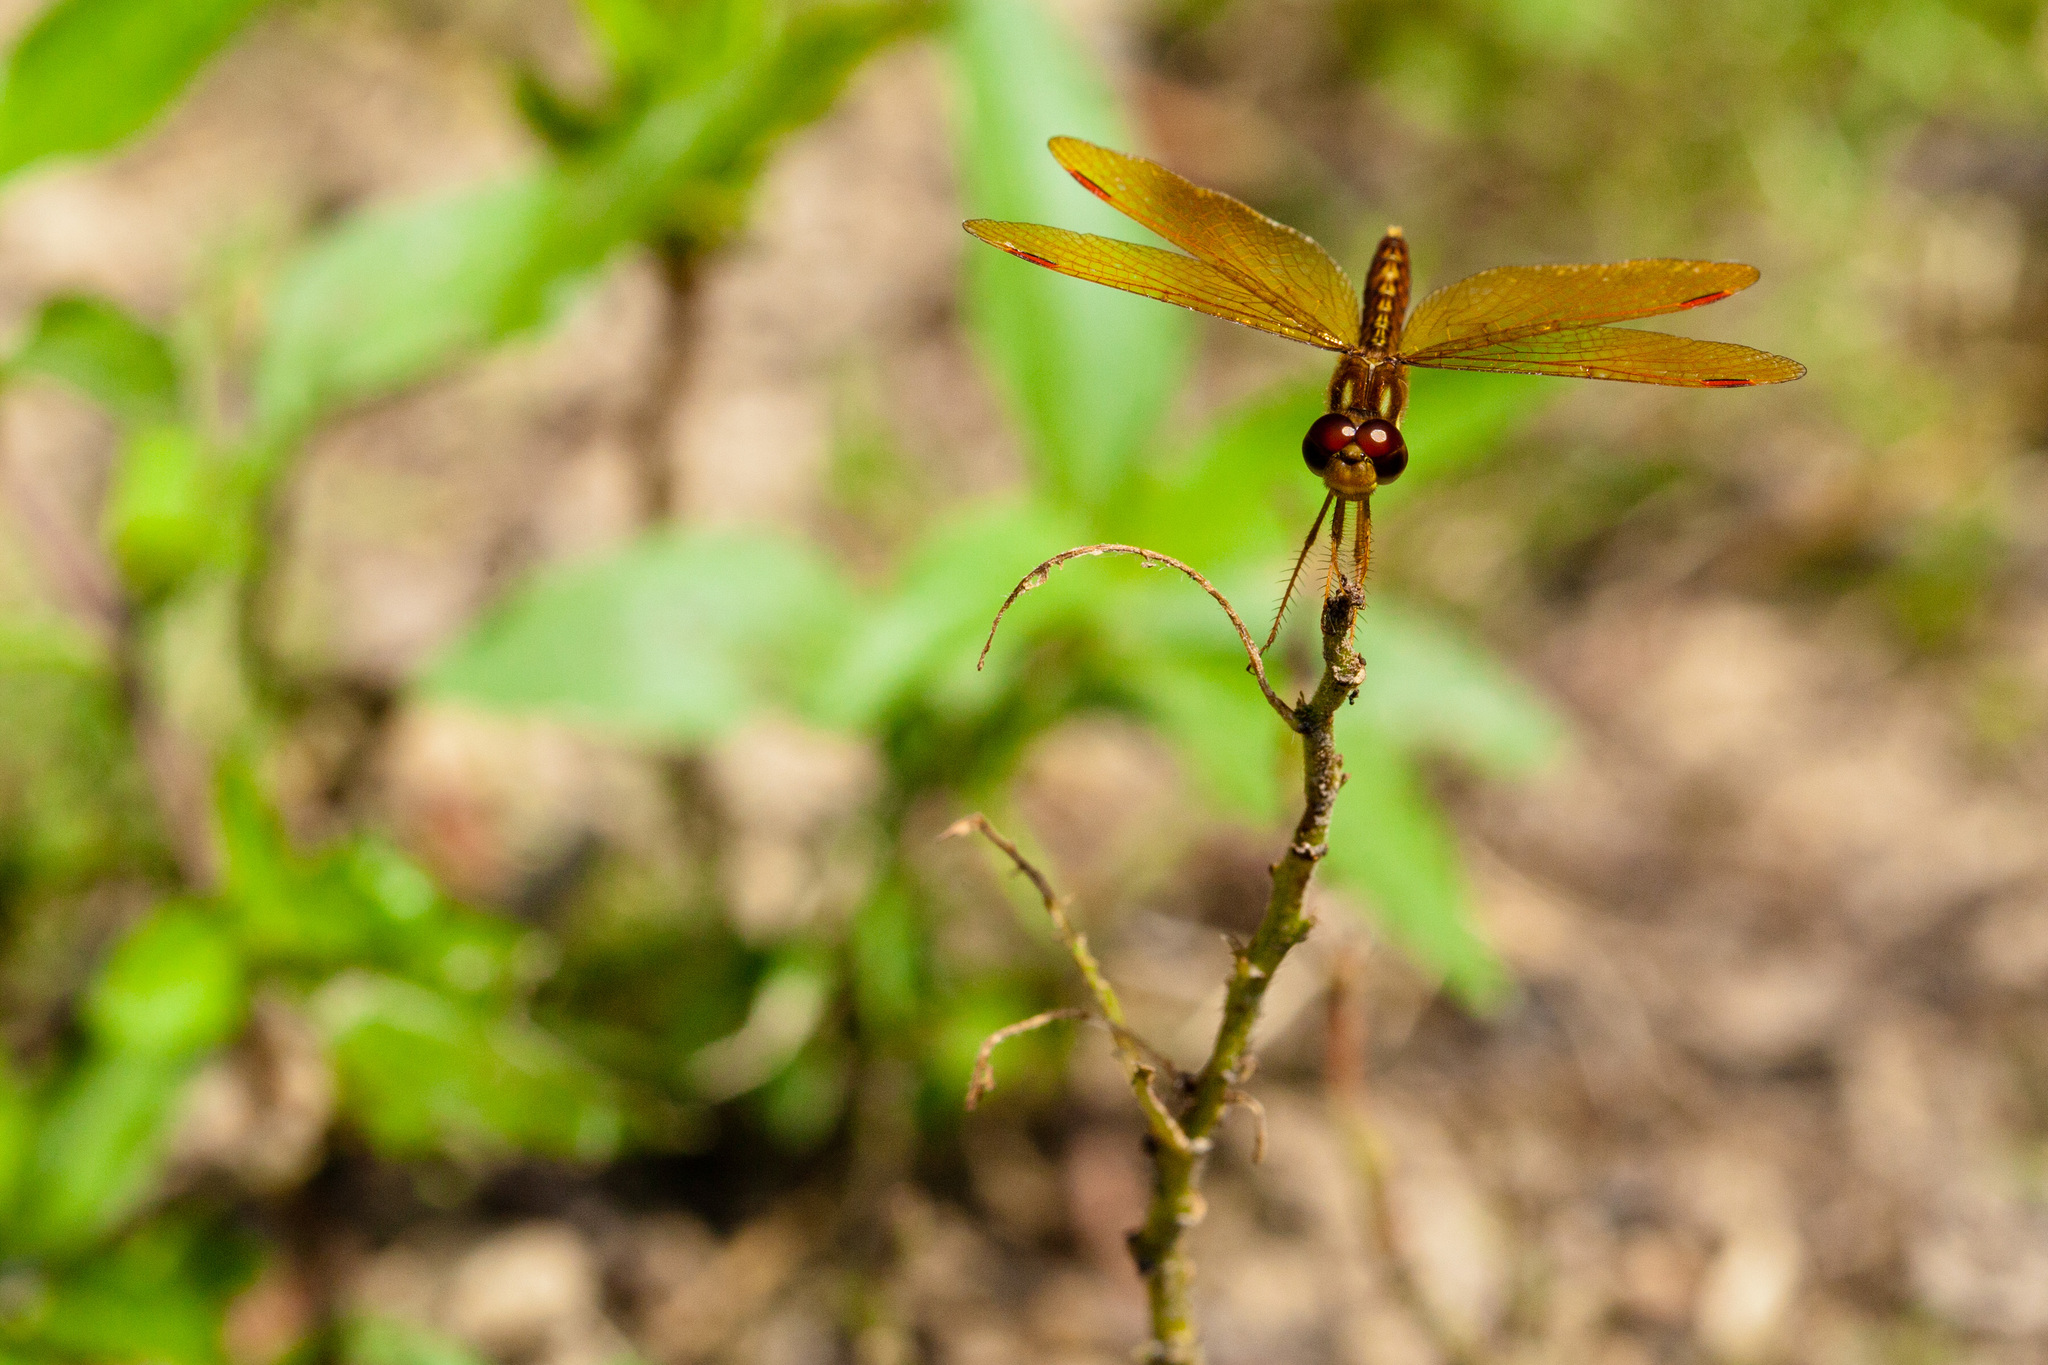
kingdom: Animalia
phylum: Arthropoda
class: Insecta
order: Odonata
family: Libellulidae
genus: Perithemis
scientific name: Perithemis tenera
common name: Eastern amberwing
